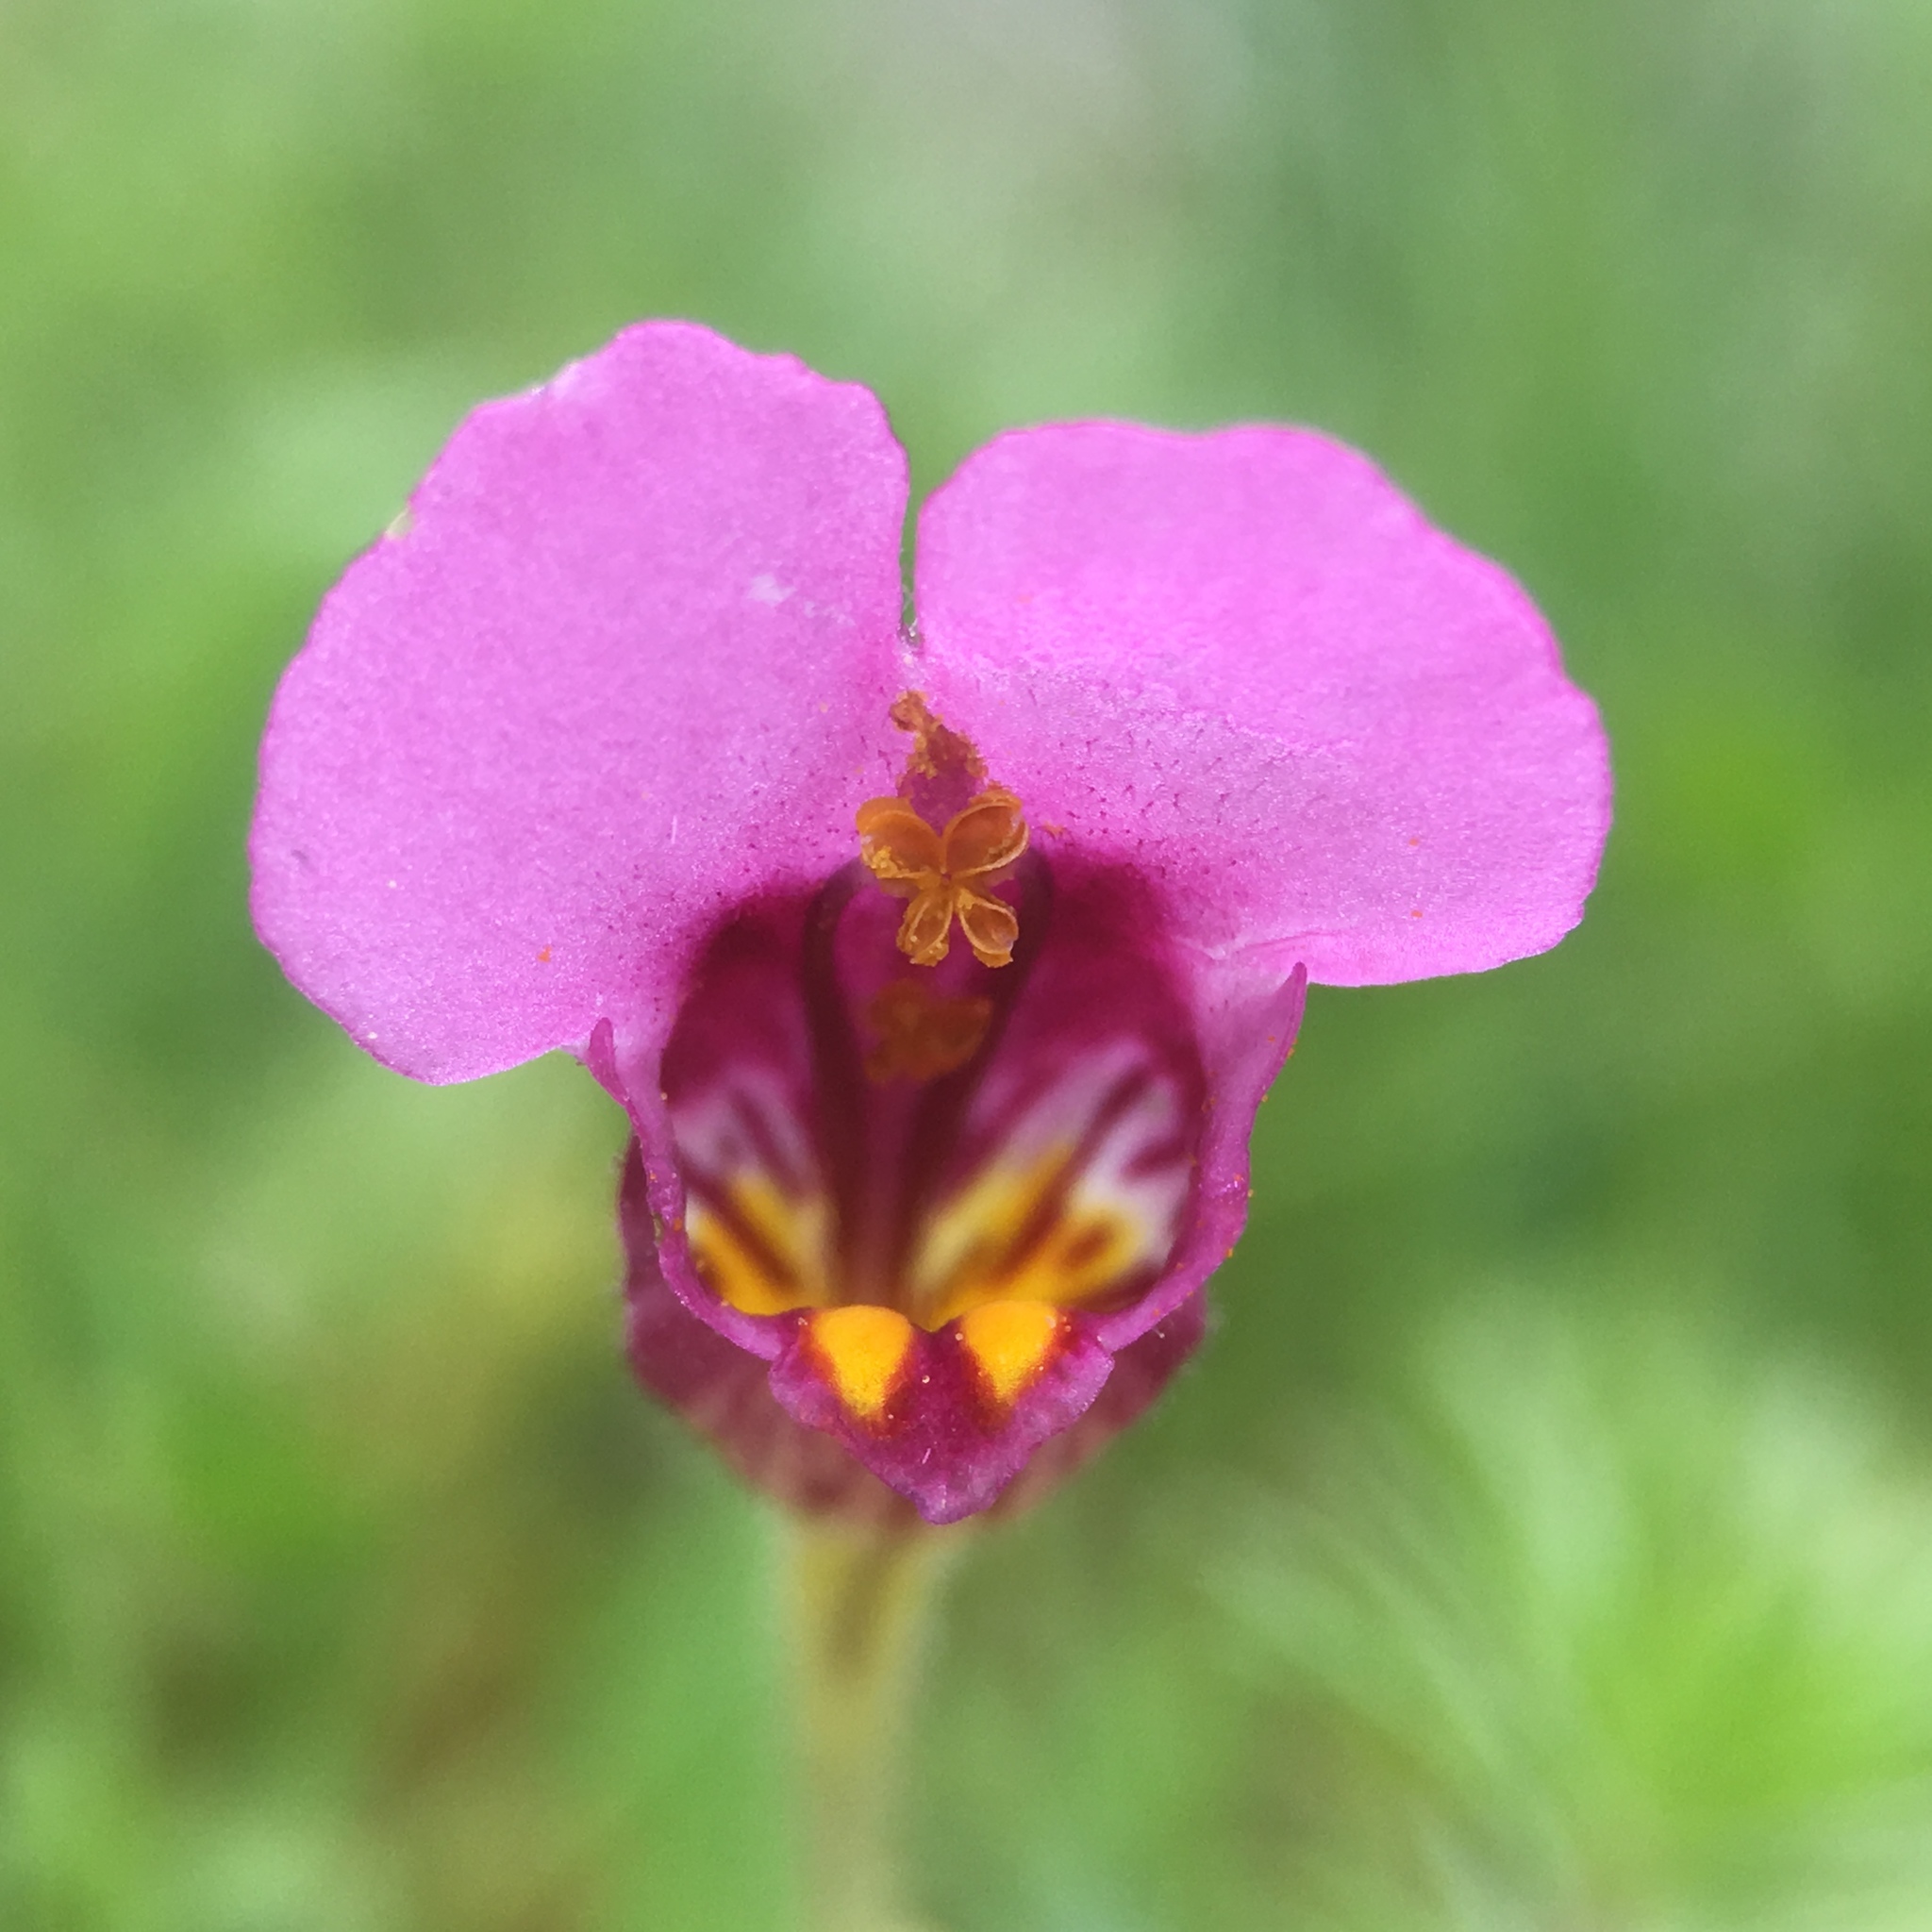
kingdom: Plantae
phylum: Tracheophyta
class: Magnoliopsida
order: Lamiales
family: Phrymaceae
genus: Diplacus
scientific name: Diplacus douglasii
